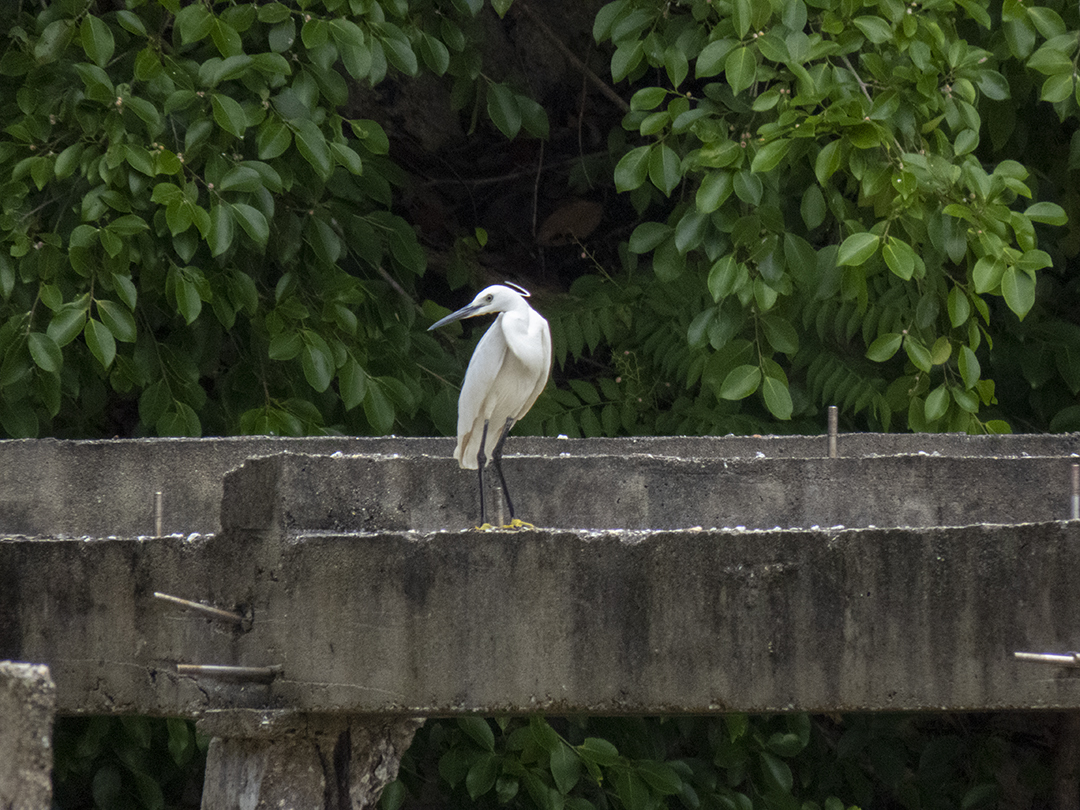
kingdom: Animalia
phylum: Chordata
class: Aves
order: Pelecaniformes
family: Ardeidae
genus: Egretta
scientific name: Egretta garzetta
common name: Little egret
